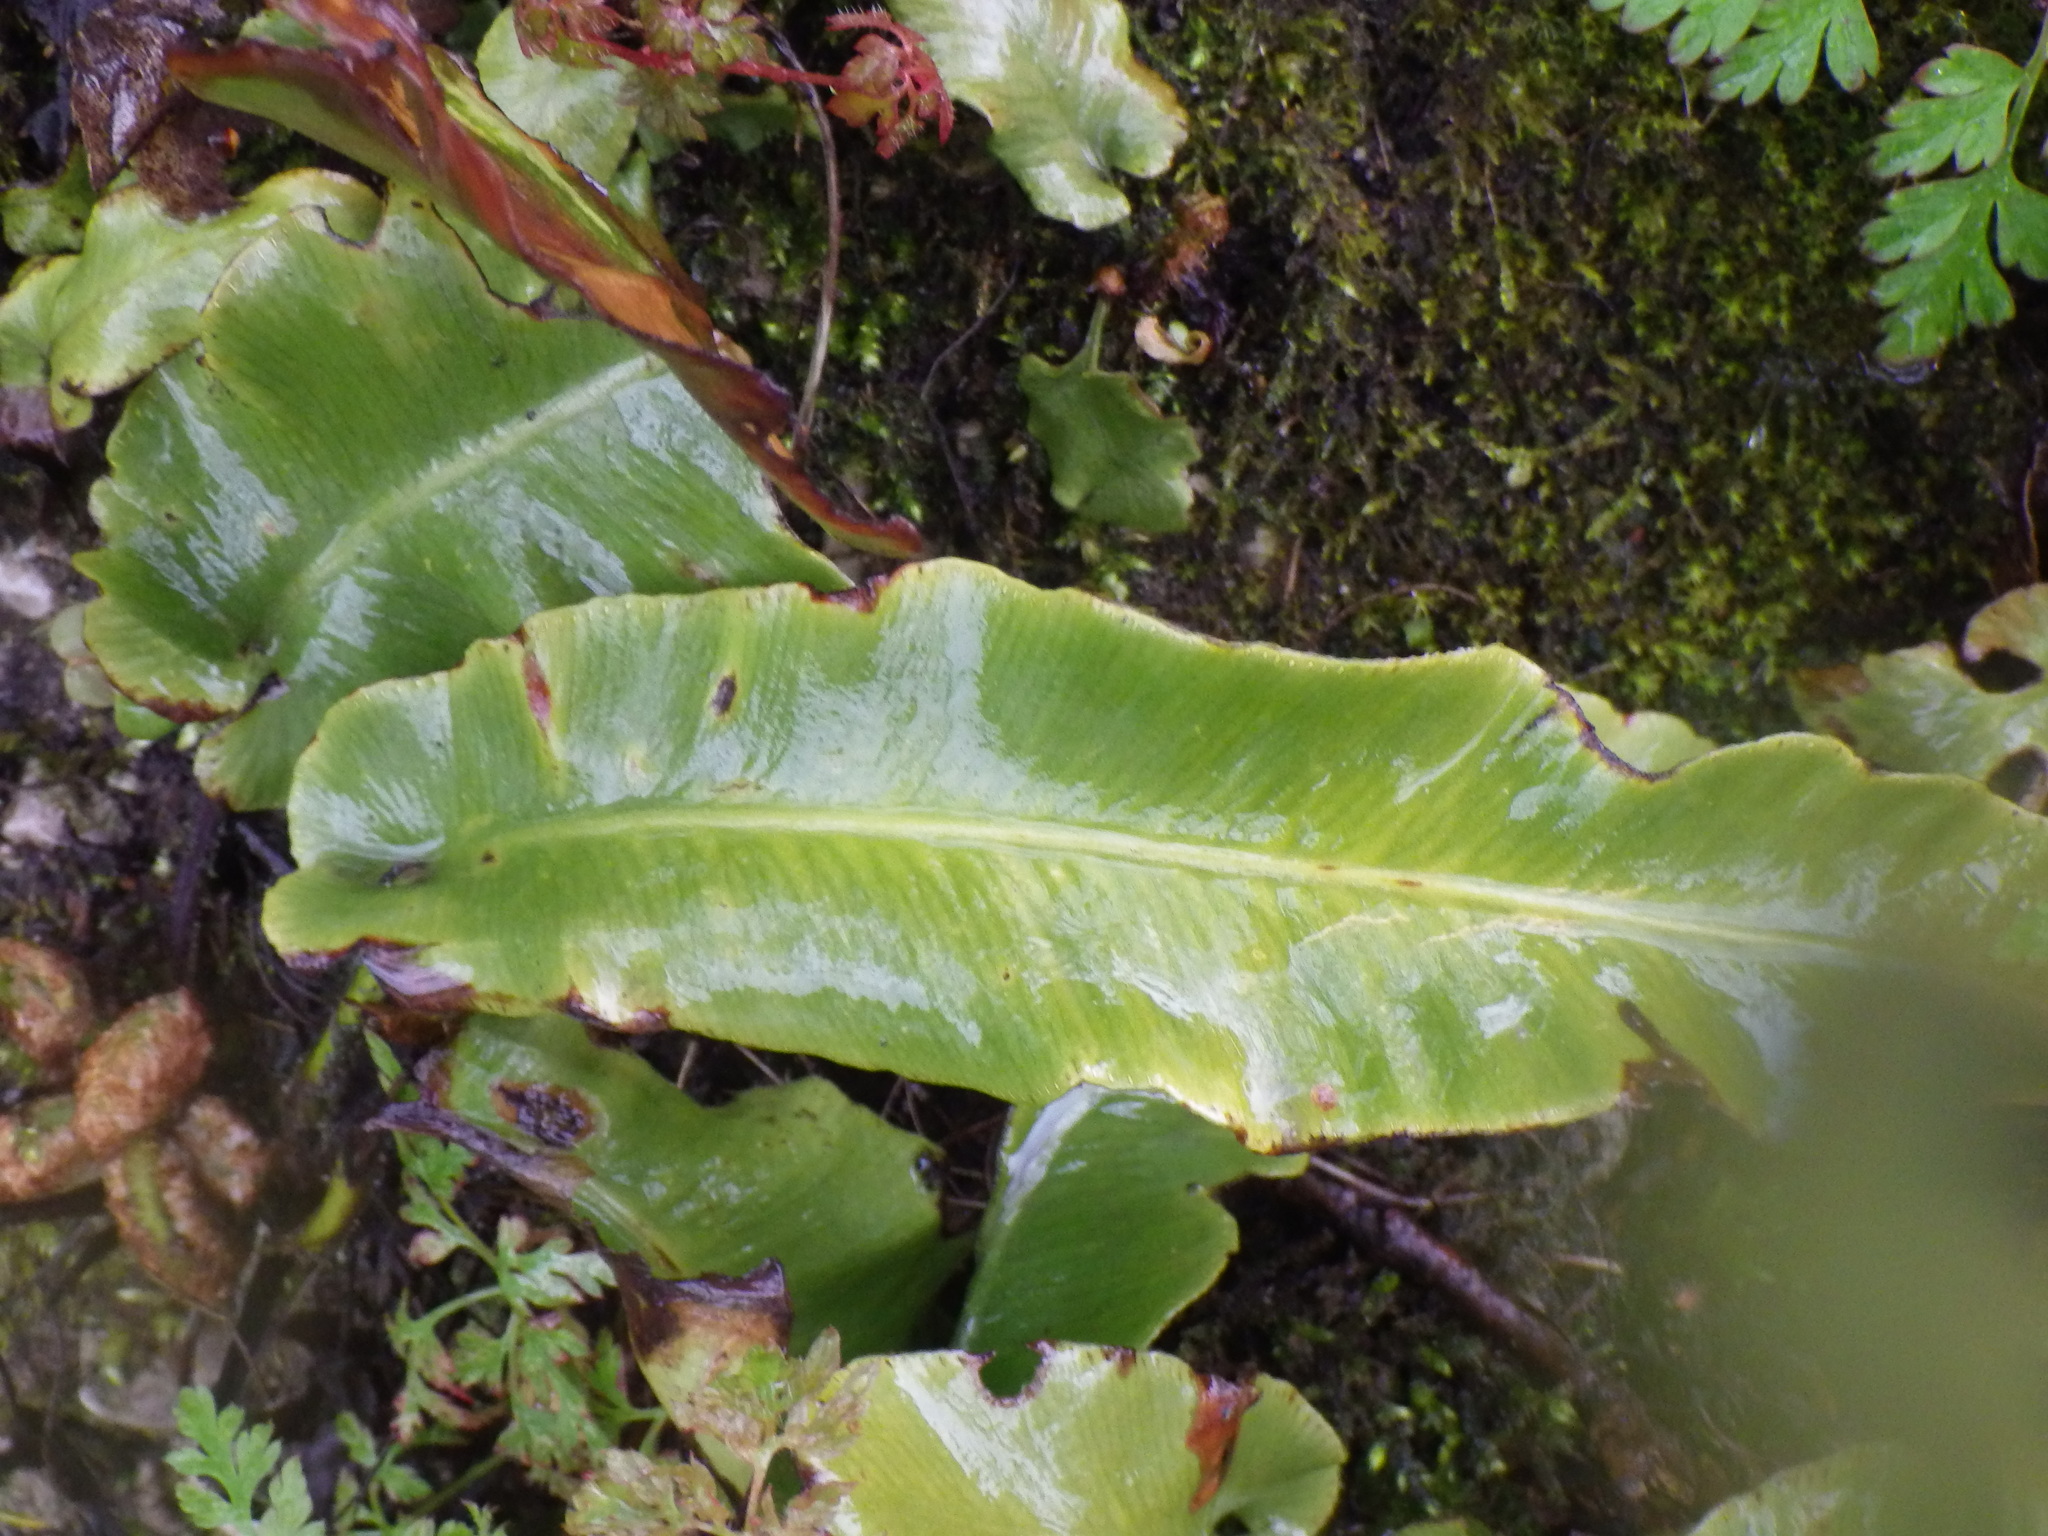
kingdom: Plantae
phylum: Tracheophyta
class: Polypodiopsida
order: Polypodiales
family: Aspleniaceae
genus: Asplenium
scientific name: Asplenium scolopendrium
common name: Hart's-tongue fern
